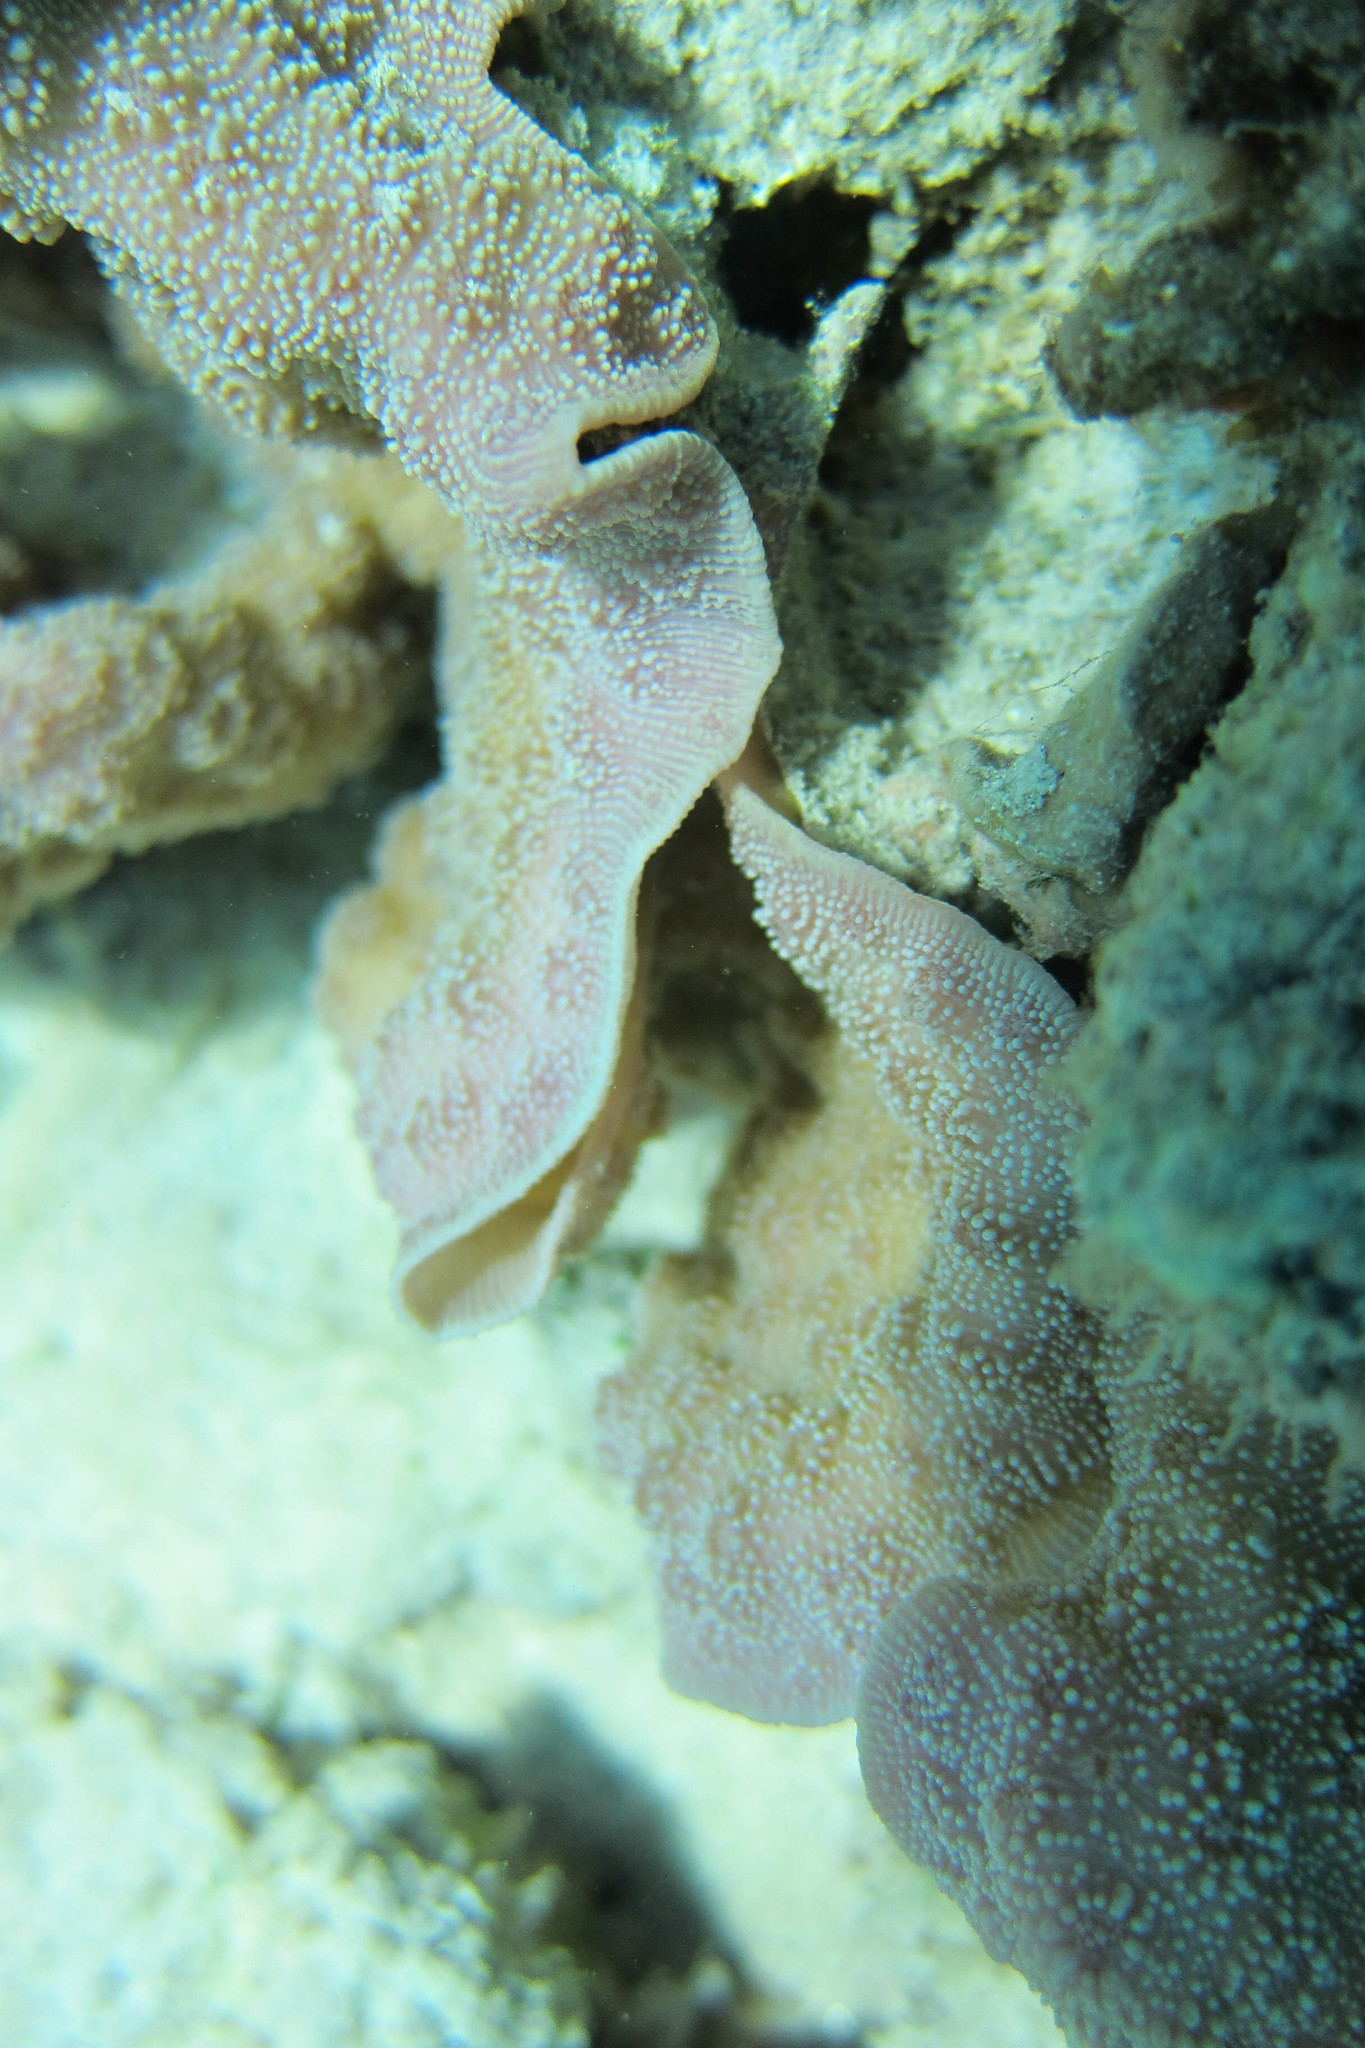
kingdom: Animalia
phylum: Cnidaria
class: Anthozoa
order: Scleractinia
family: Merulinidae
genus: Echinopora
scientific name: Echinopora lamellosa
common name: Hedgehog coral
